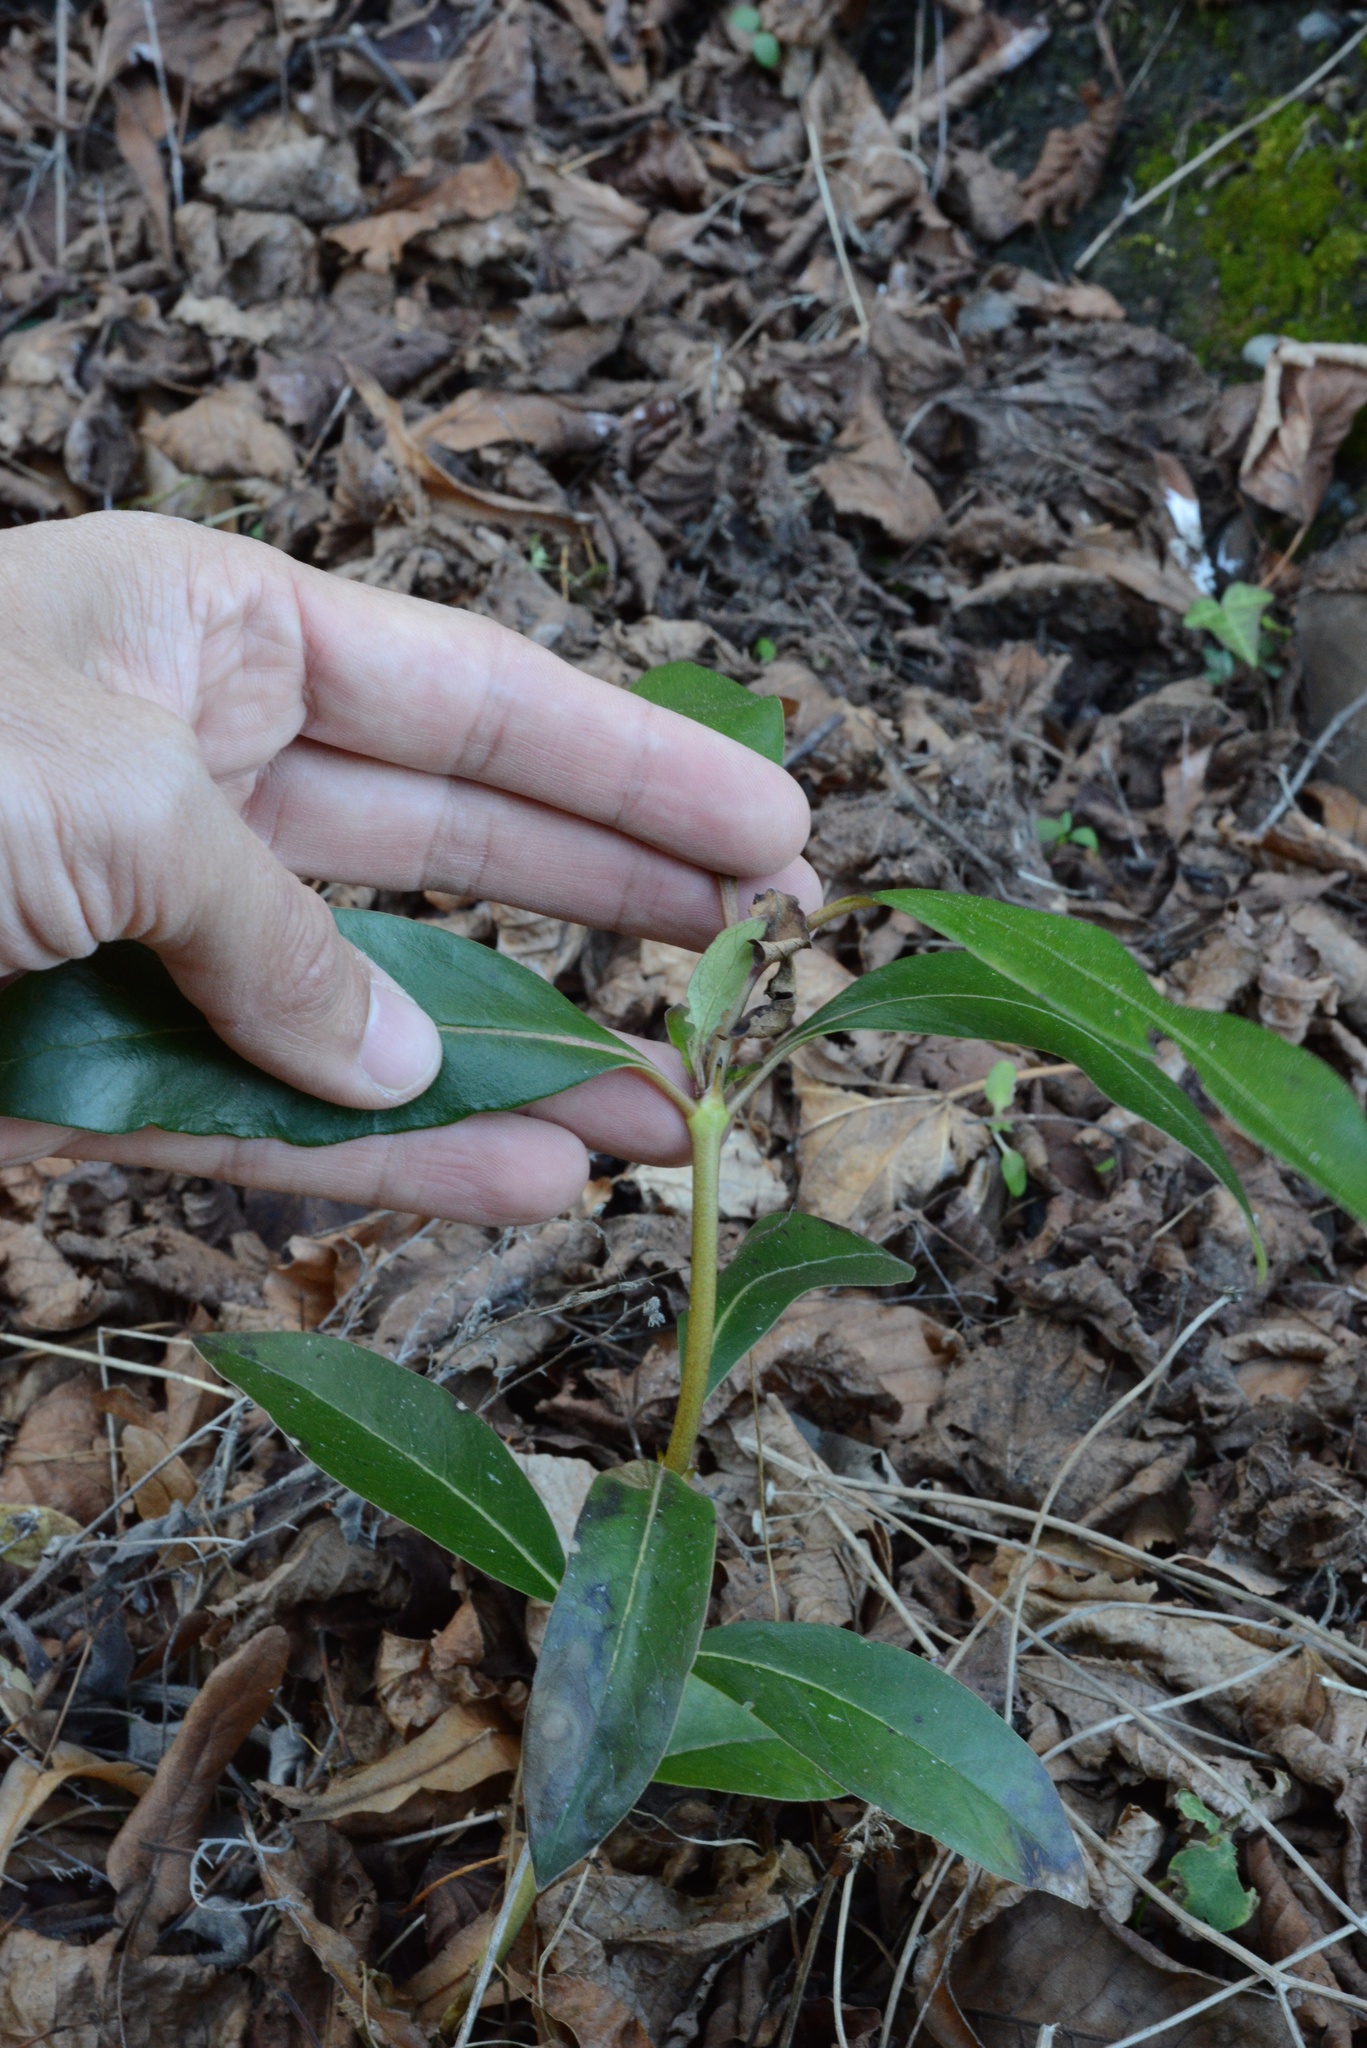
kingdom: Plantae
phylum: Tracheophyta
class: Magnoliopsida
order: Gentianales
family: Rubiaceae
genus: Coprosma
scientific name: Coprosma robusta
